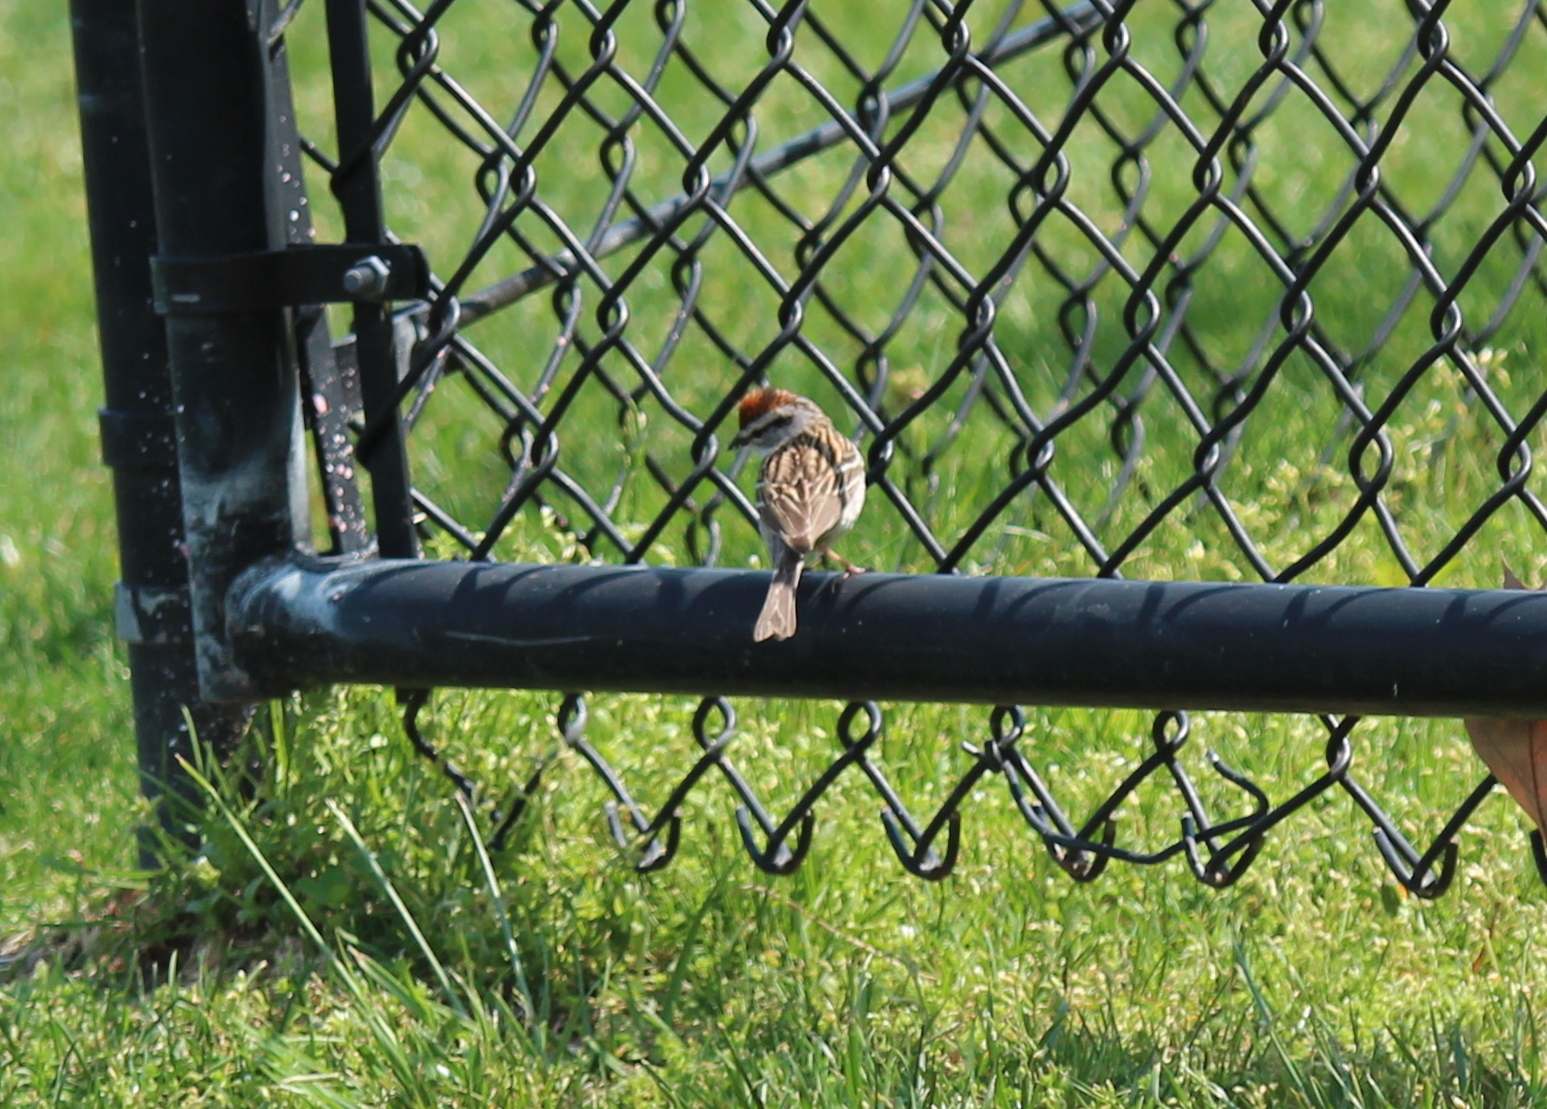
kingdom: Animalia
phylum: Chordata
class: Aves
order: Passeriformes
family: Passerellidae
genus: Spizella
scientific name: Spizella passerina
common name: Chipping sparrow
